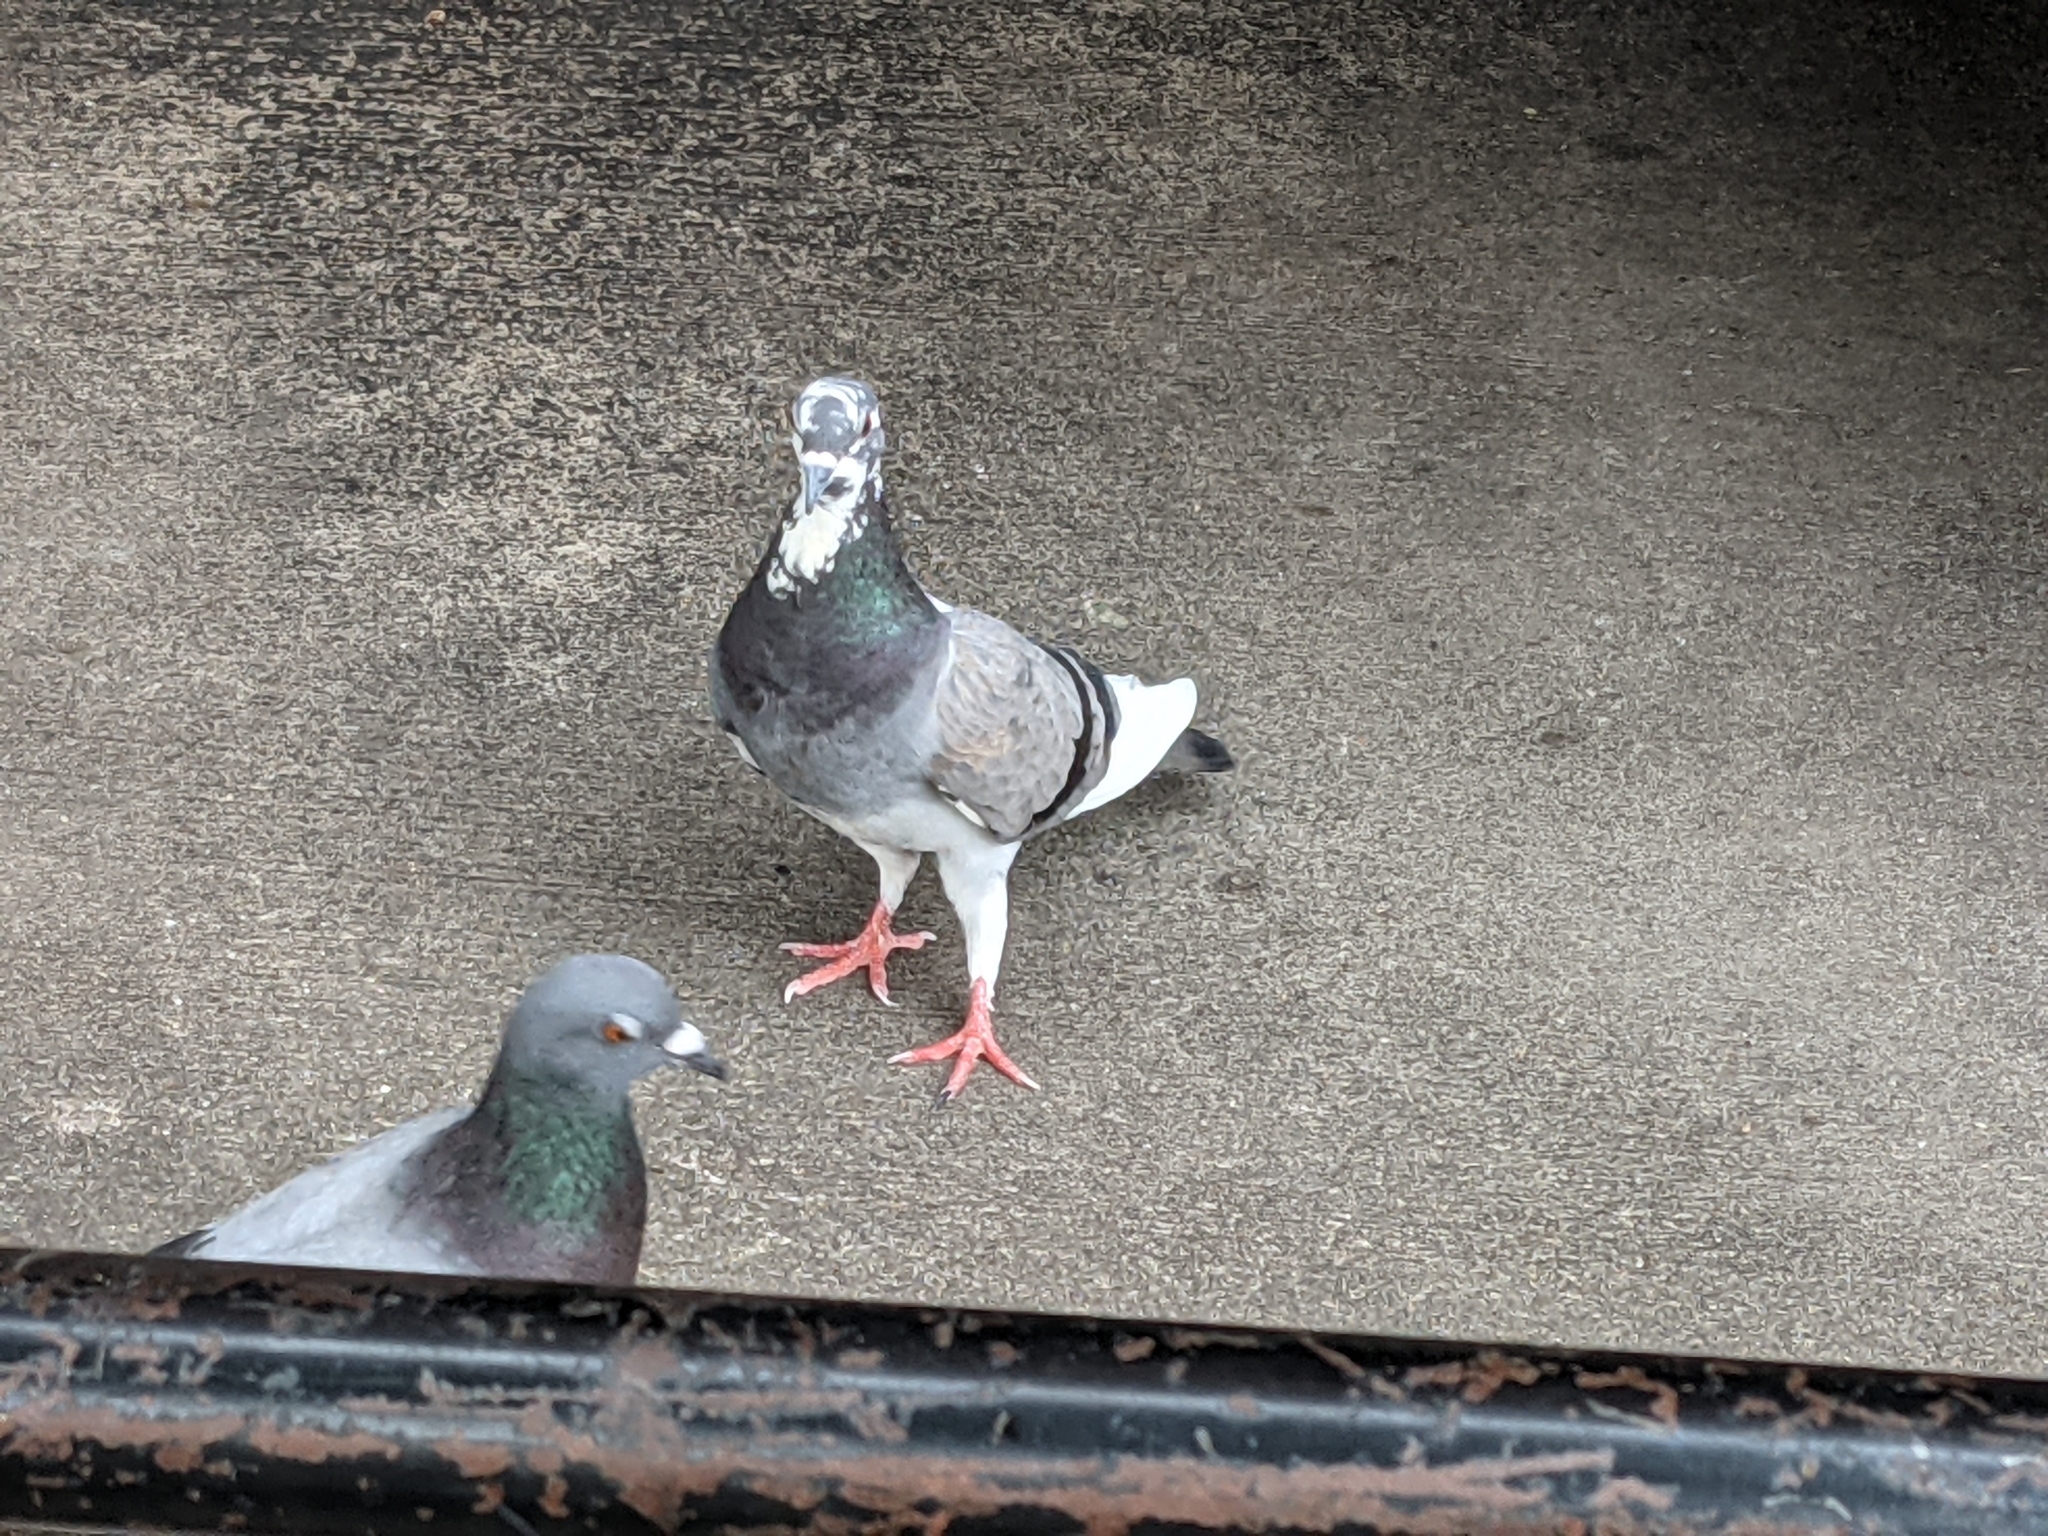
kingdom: Animalia
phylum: Chordata
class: Aves
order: Columbiformes
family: Columbidae
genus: Columba
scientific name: Columba livia
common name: Rock pigeon
